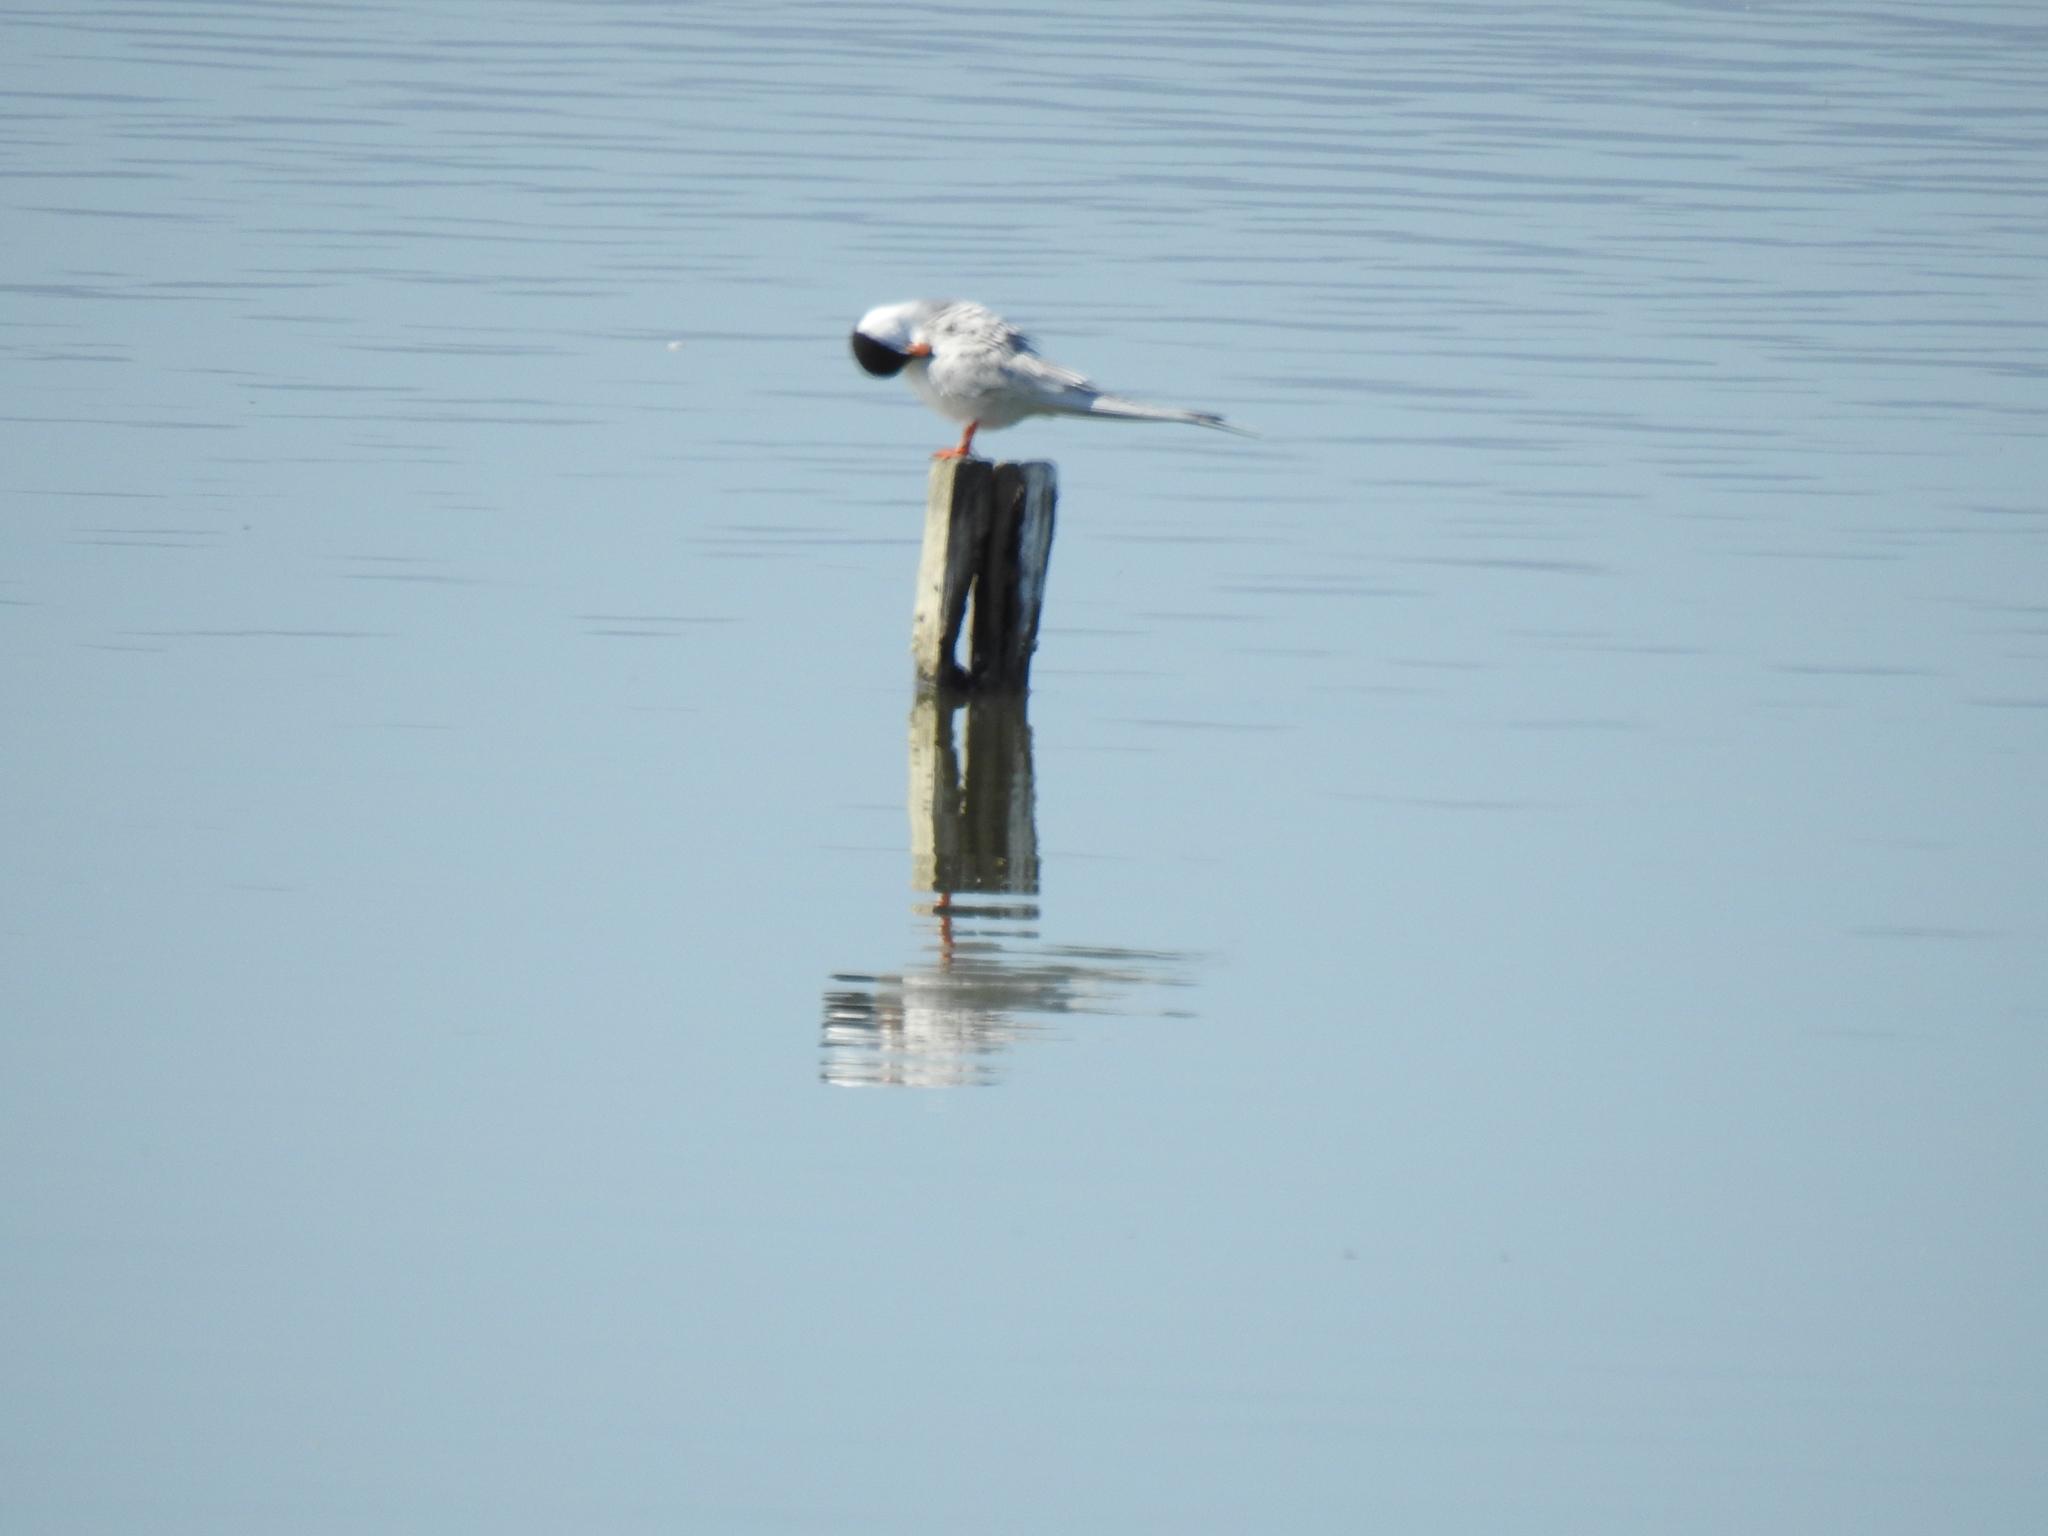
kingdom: Animalia
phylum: Chordata
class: Aves
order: Charadriiformes
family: Laridae
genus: Sterna
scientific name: Sterna forsteri
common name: Forster's tern
